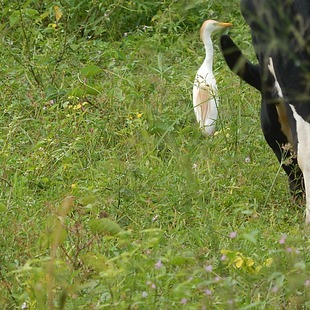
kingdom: Animalia
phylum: Chordata
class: Aves
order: Pelecaniformes
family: Ardeidae
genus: Bubulcus
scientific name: Bubulcus ibis
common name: Cattle egret
